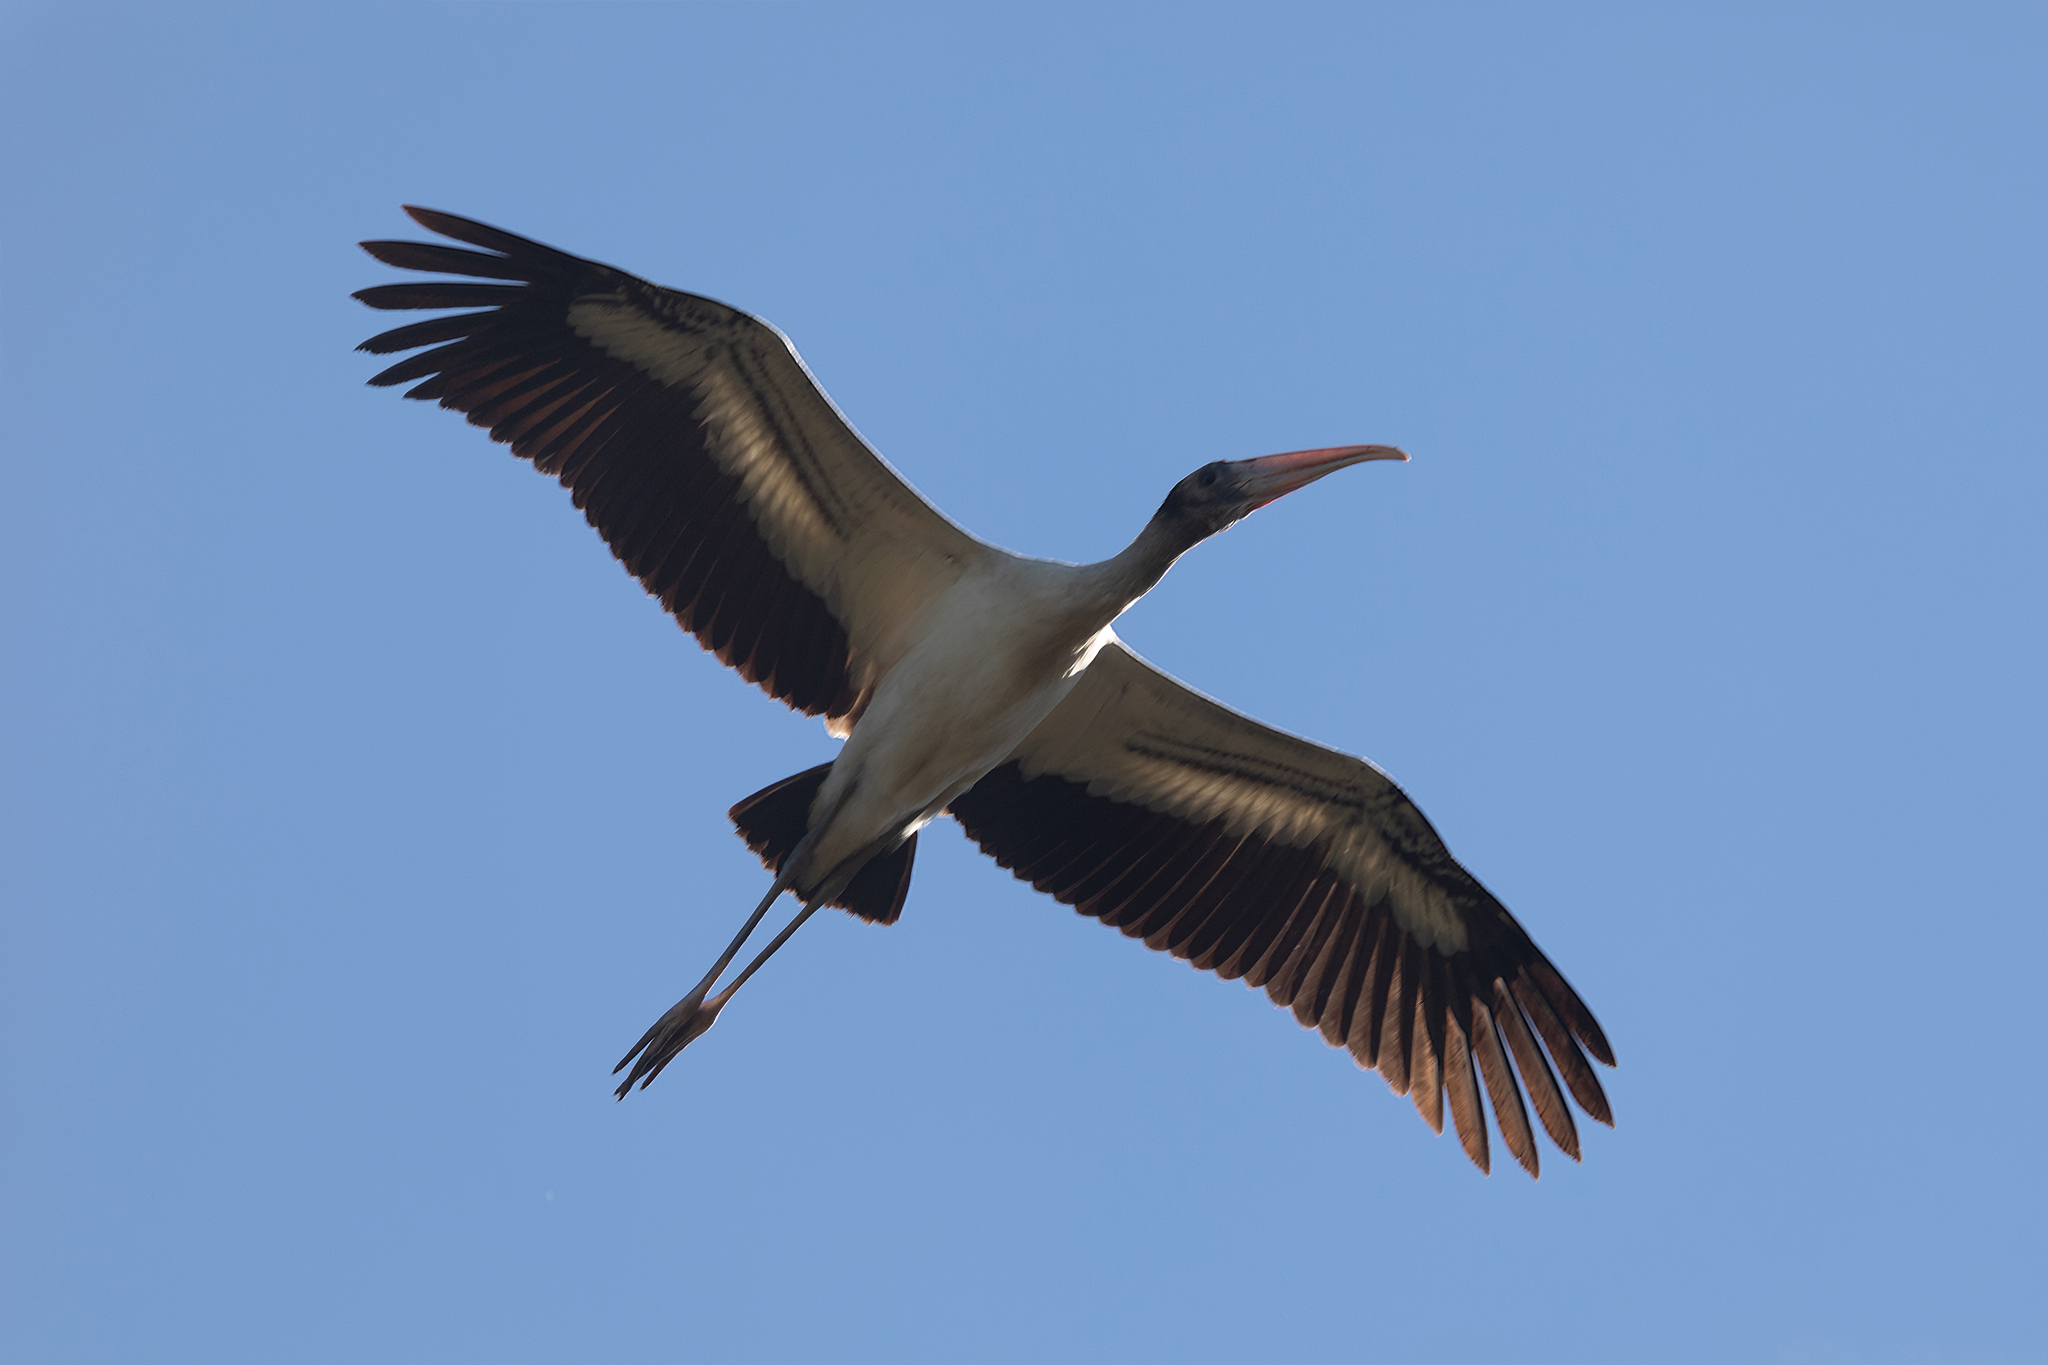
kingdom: Animalia
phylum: Chordata
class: Aves
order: Ciconiiformes
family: Ciconiidae
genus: Mycteria
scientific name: Mycteria americana
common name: Wood stork
